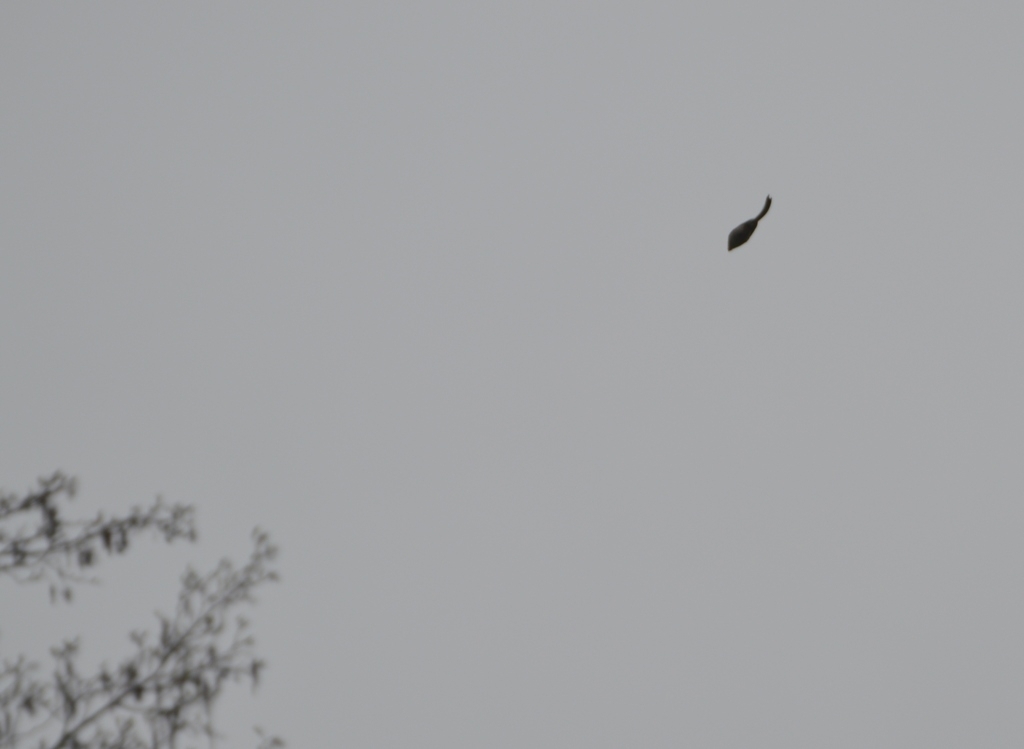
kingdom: Animalia
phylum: Chordata
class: Aves
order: Passeriformes
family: Aegithalidae
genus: Aegithalos
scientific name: Aegithalos caudatus
